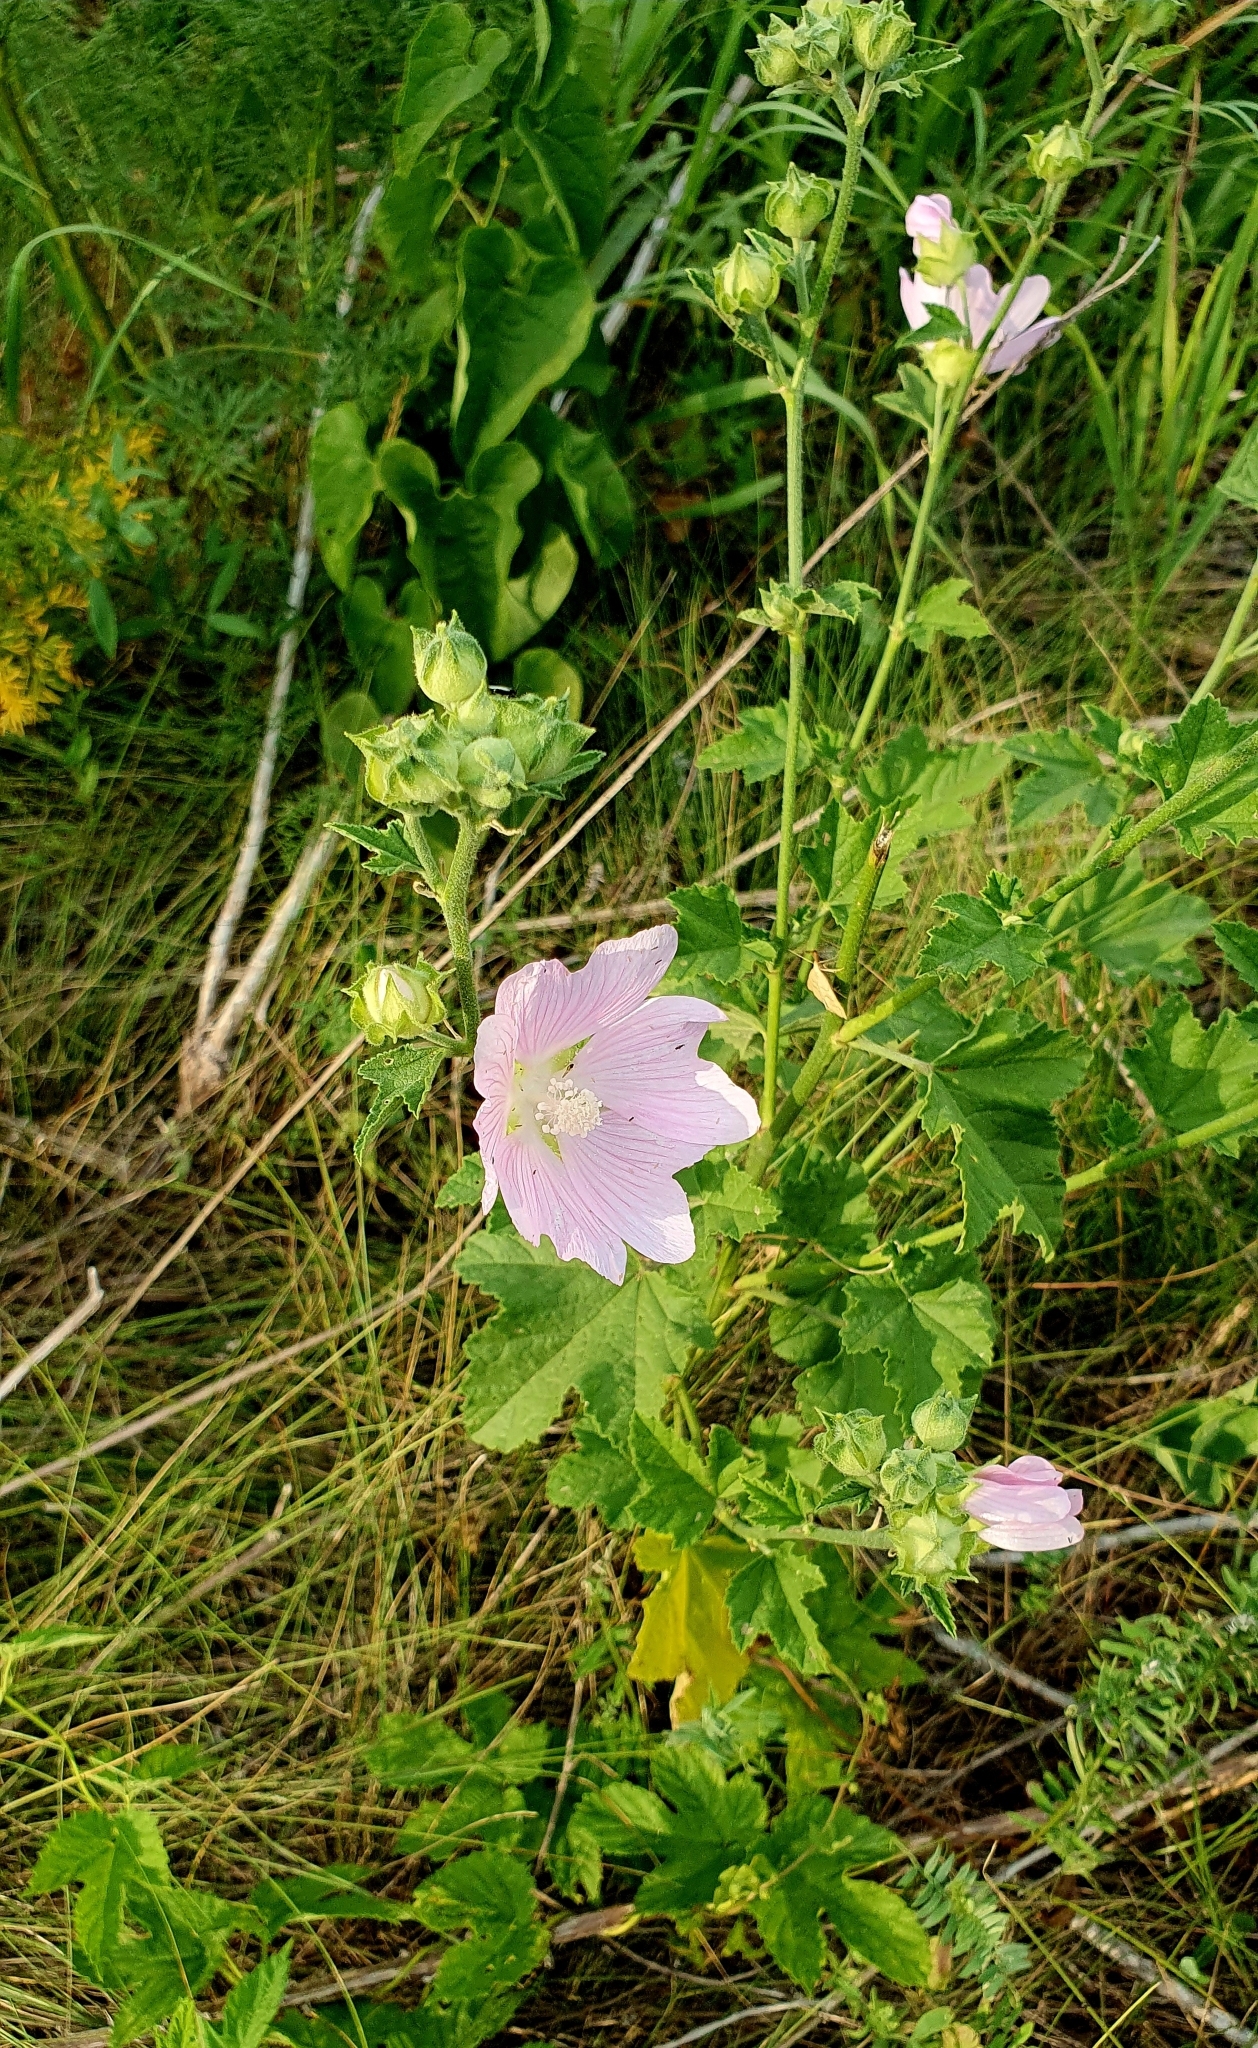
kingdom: Plantae
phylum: Tracheophyta
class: Magnoliopsida
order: Malvales
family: Malvaceae
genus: Malva
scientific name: Malva thuringiaca
